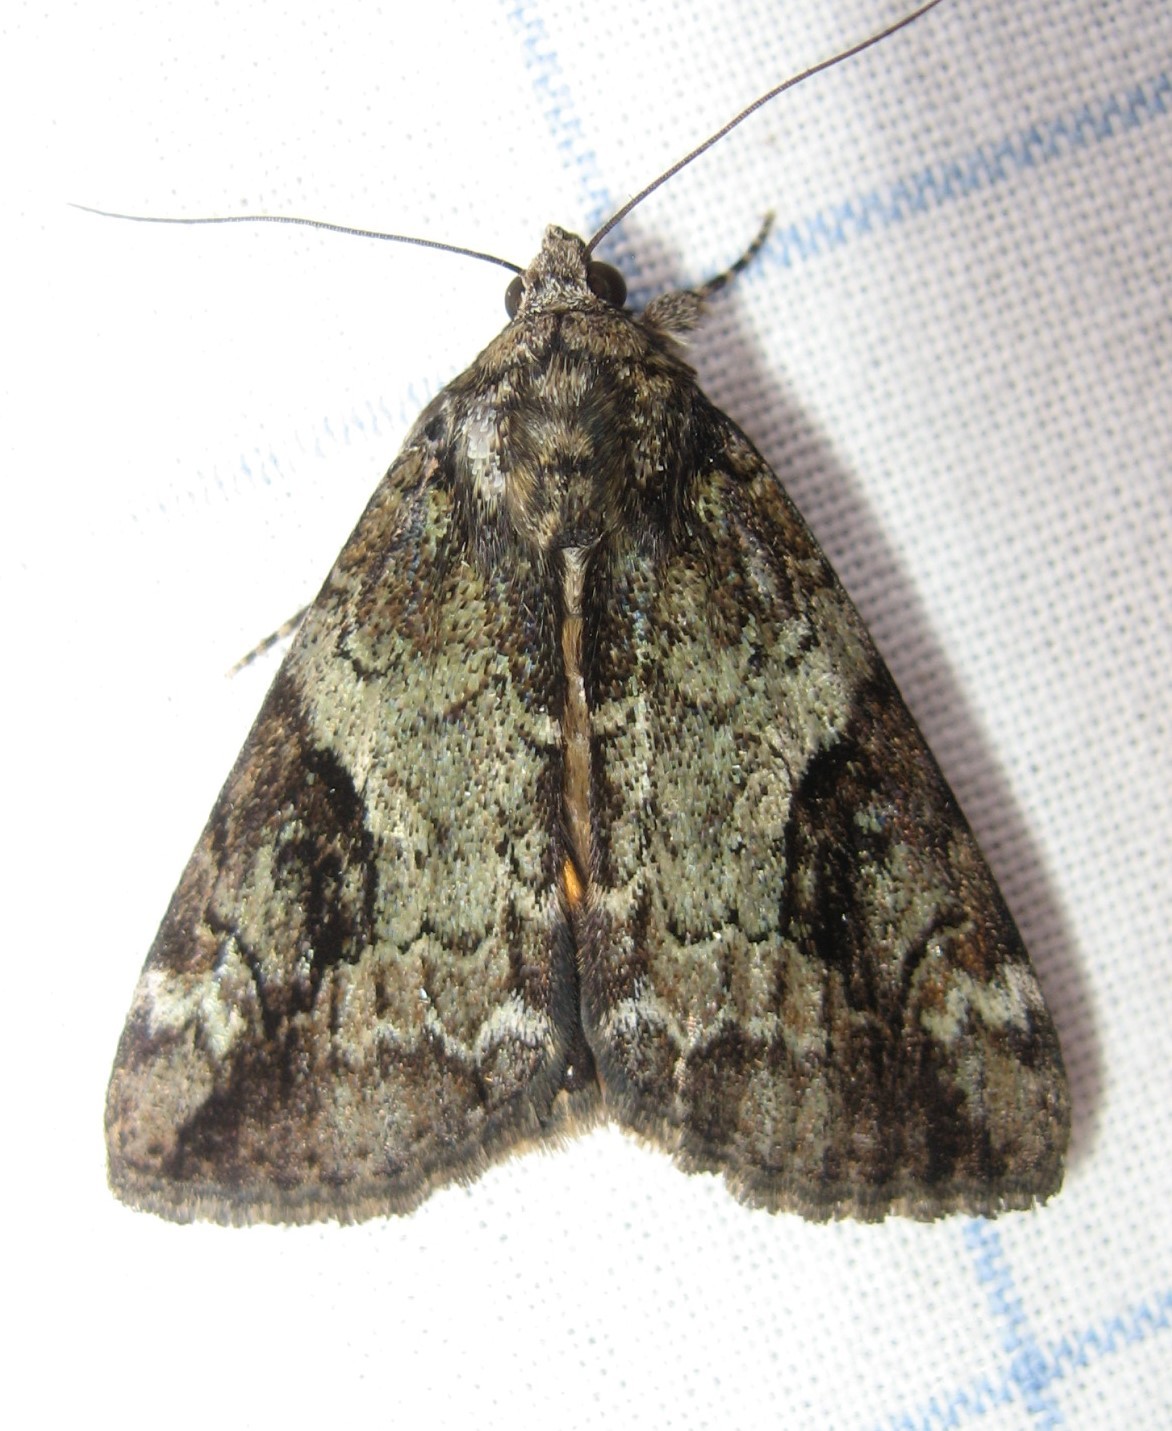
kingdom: Animalia
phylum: Arthropoda
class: Insecta
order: Lepidoptera
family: Erebidae
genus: Catocala
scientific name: Catocala micronympha
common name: Little nymph underwing
